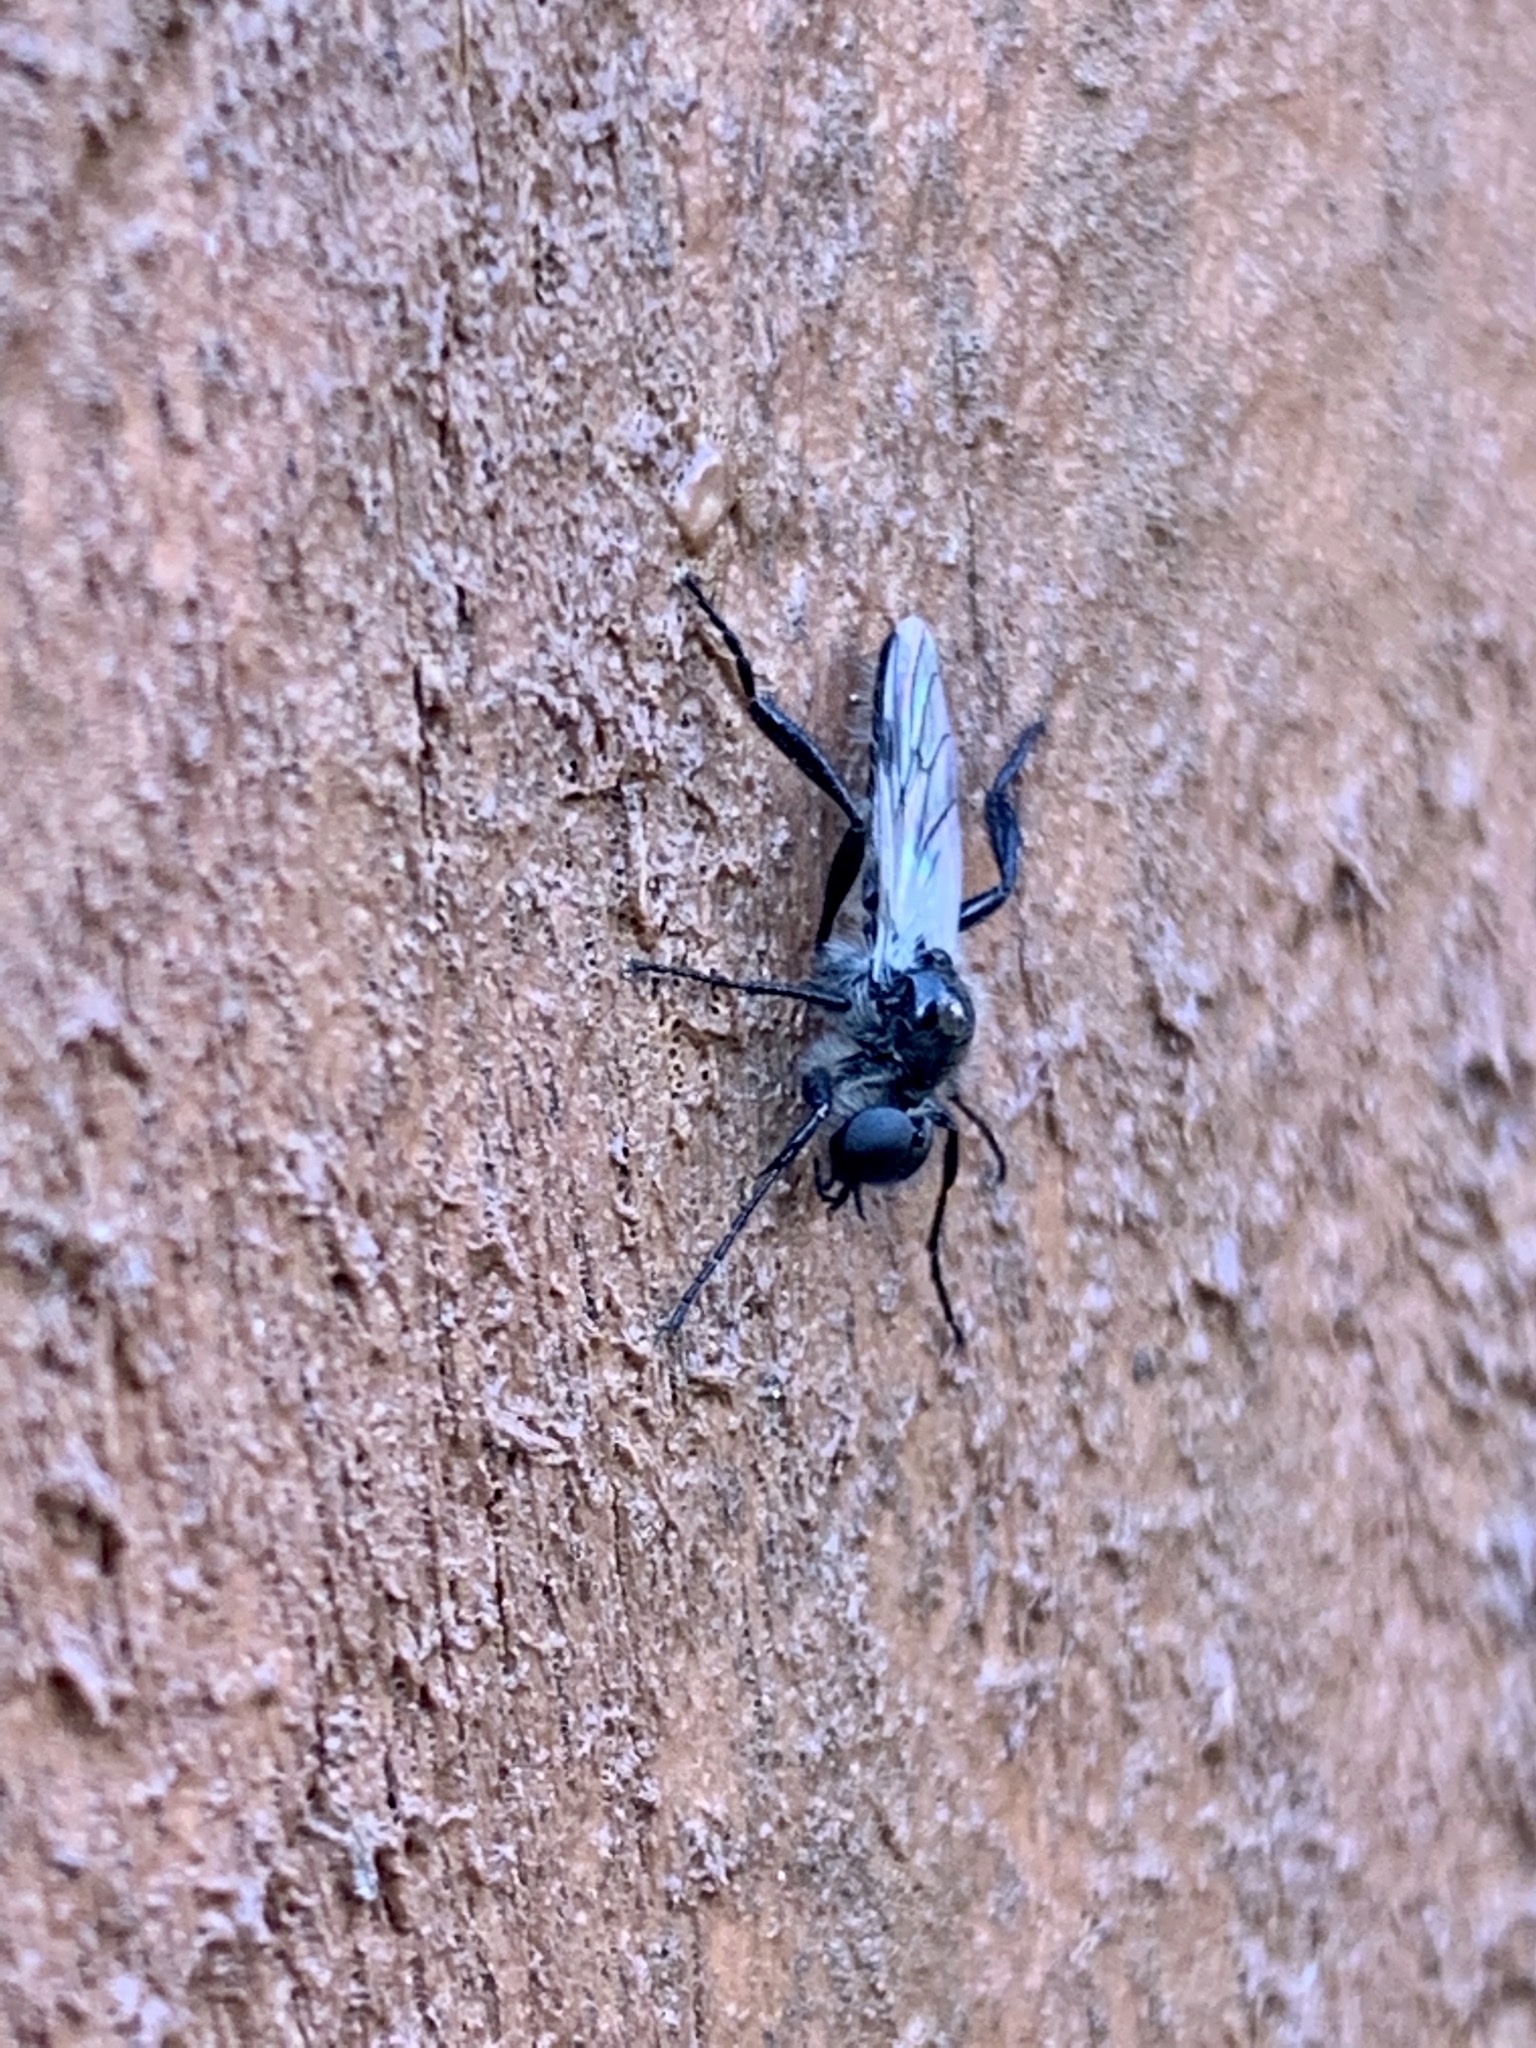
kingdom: Animalia
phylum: Arthropoda
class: Insecta
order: Diptera
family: Bibionidae
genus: Bibio
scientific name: Bibio albipennis
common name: White-winged march fly
